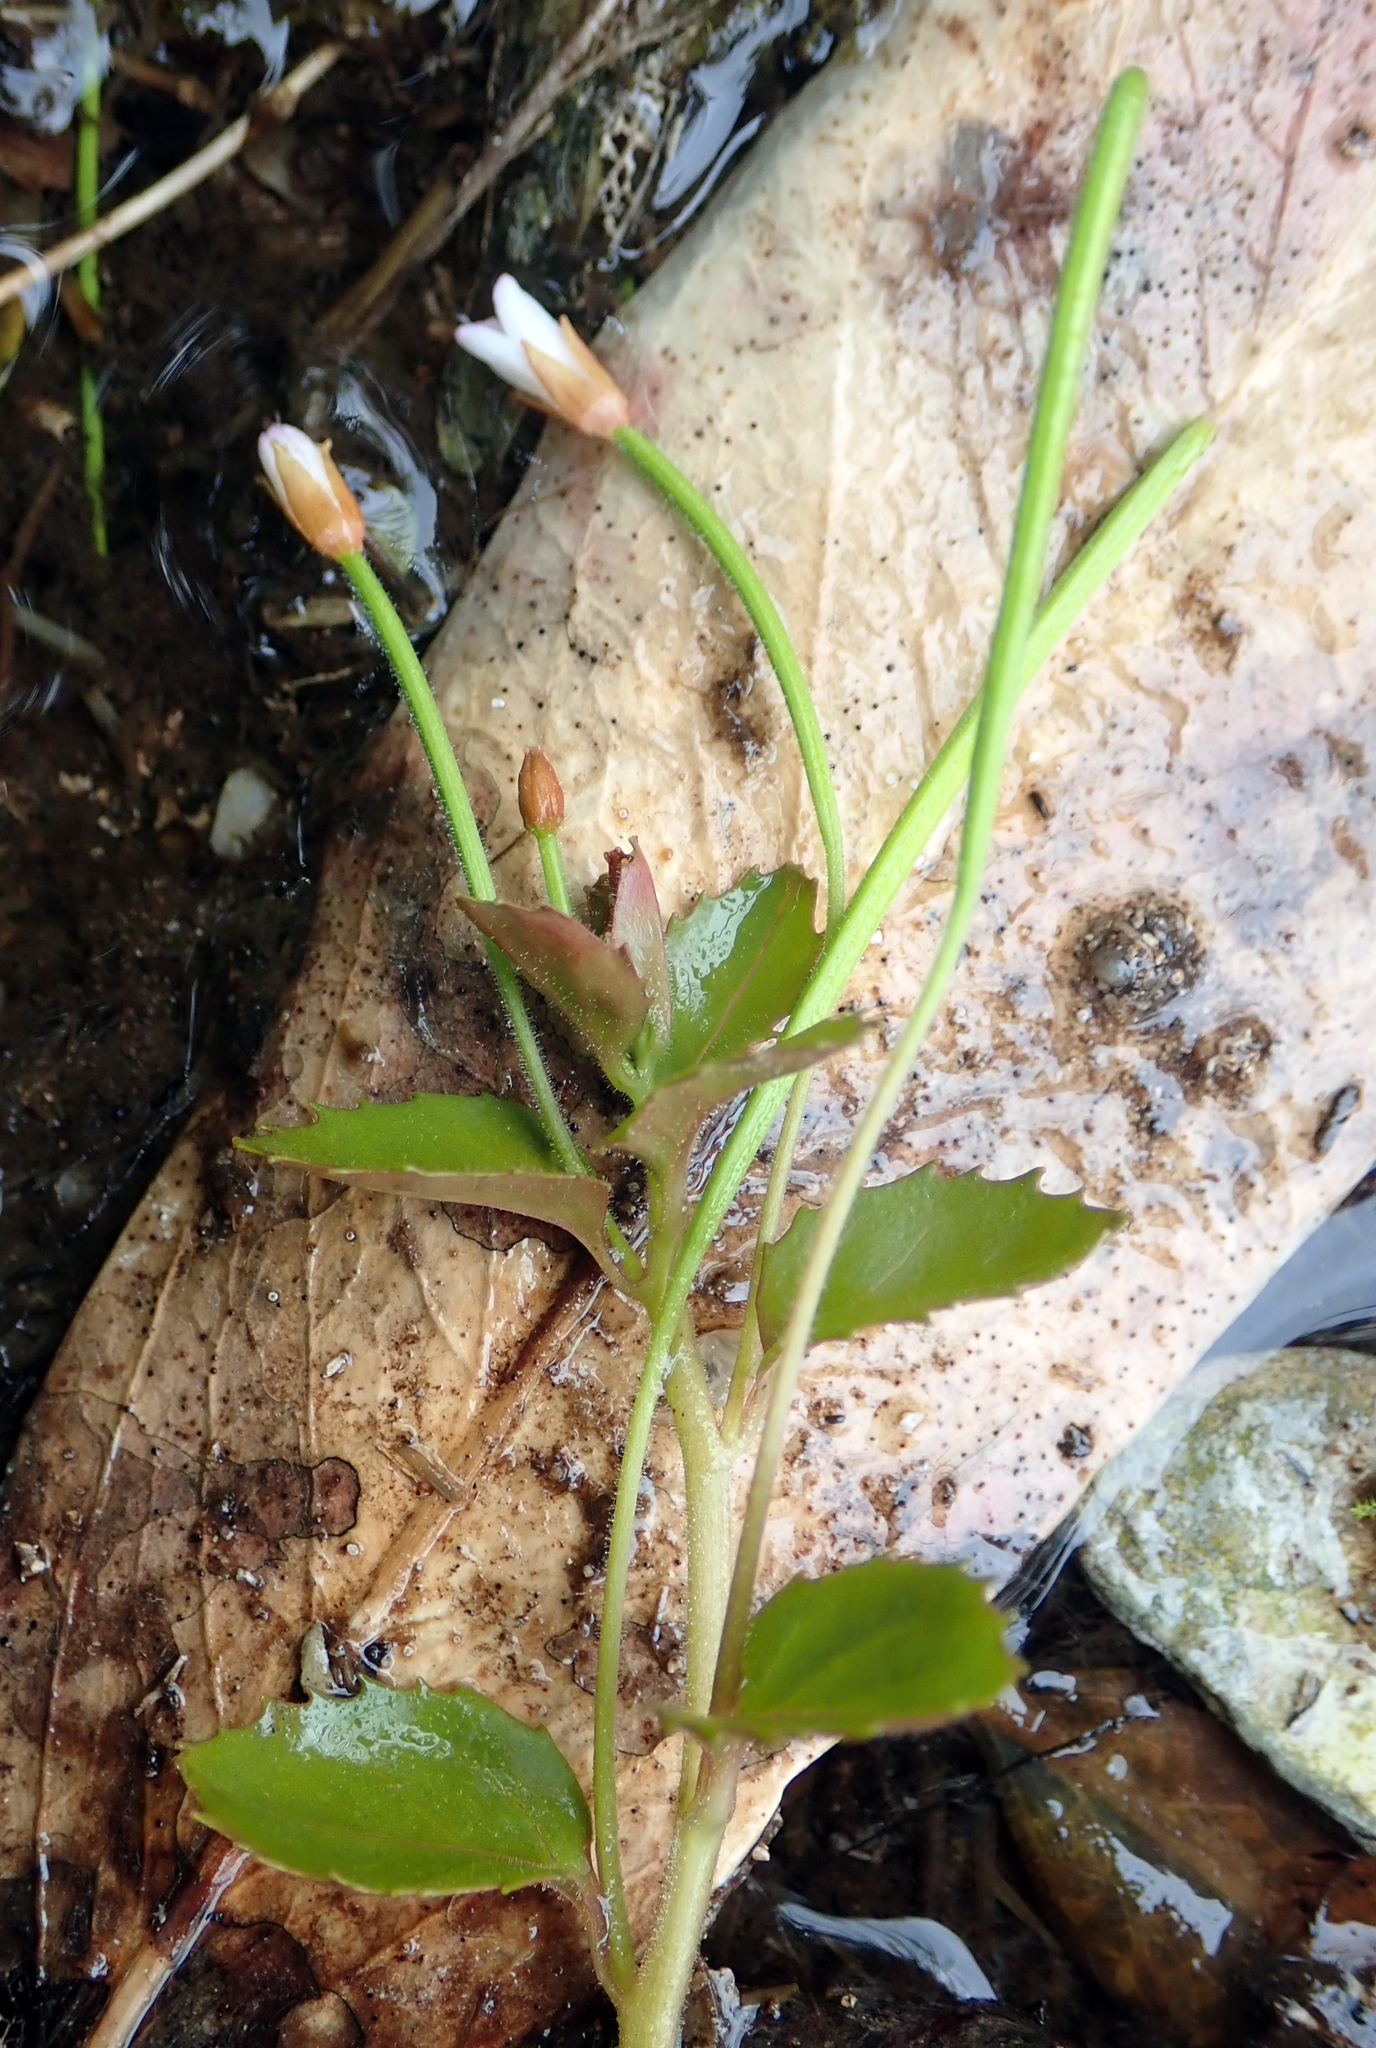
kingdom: Plantae
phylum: Tracheophyta
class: Magnoliopsida
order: Myrtales
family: Onagraceae
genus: Epilobium
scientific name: Epilobium rotundifolium
